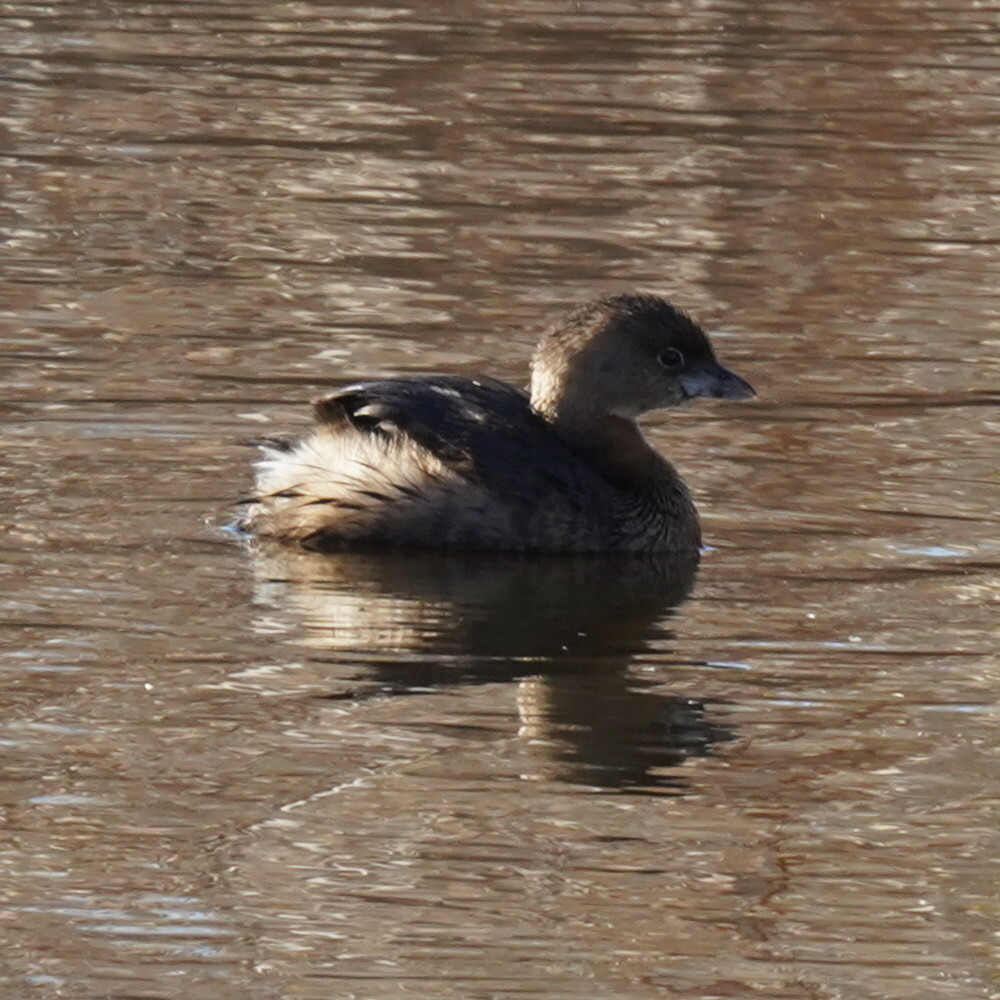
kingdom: Animalia
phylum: Chordata
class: Aves
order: Podicipediformes
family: Podicipedidae
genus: Podilymbus
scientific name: Podilymbus podiceps
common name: Pied-billed grebe
